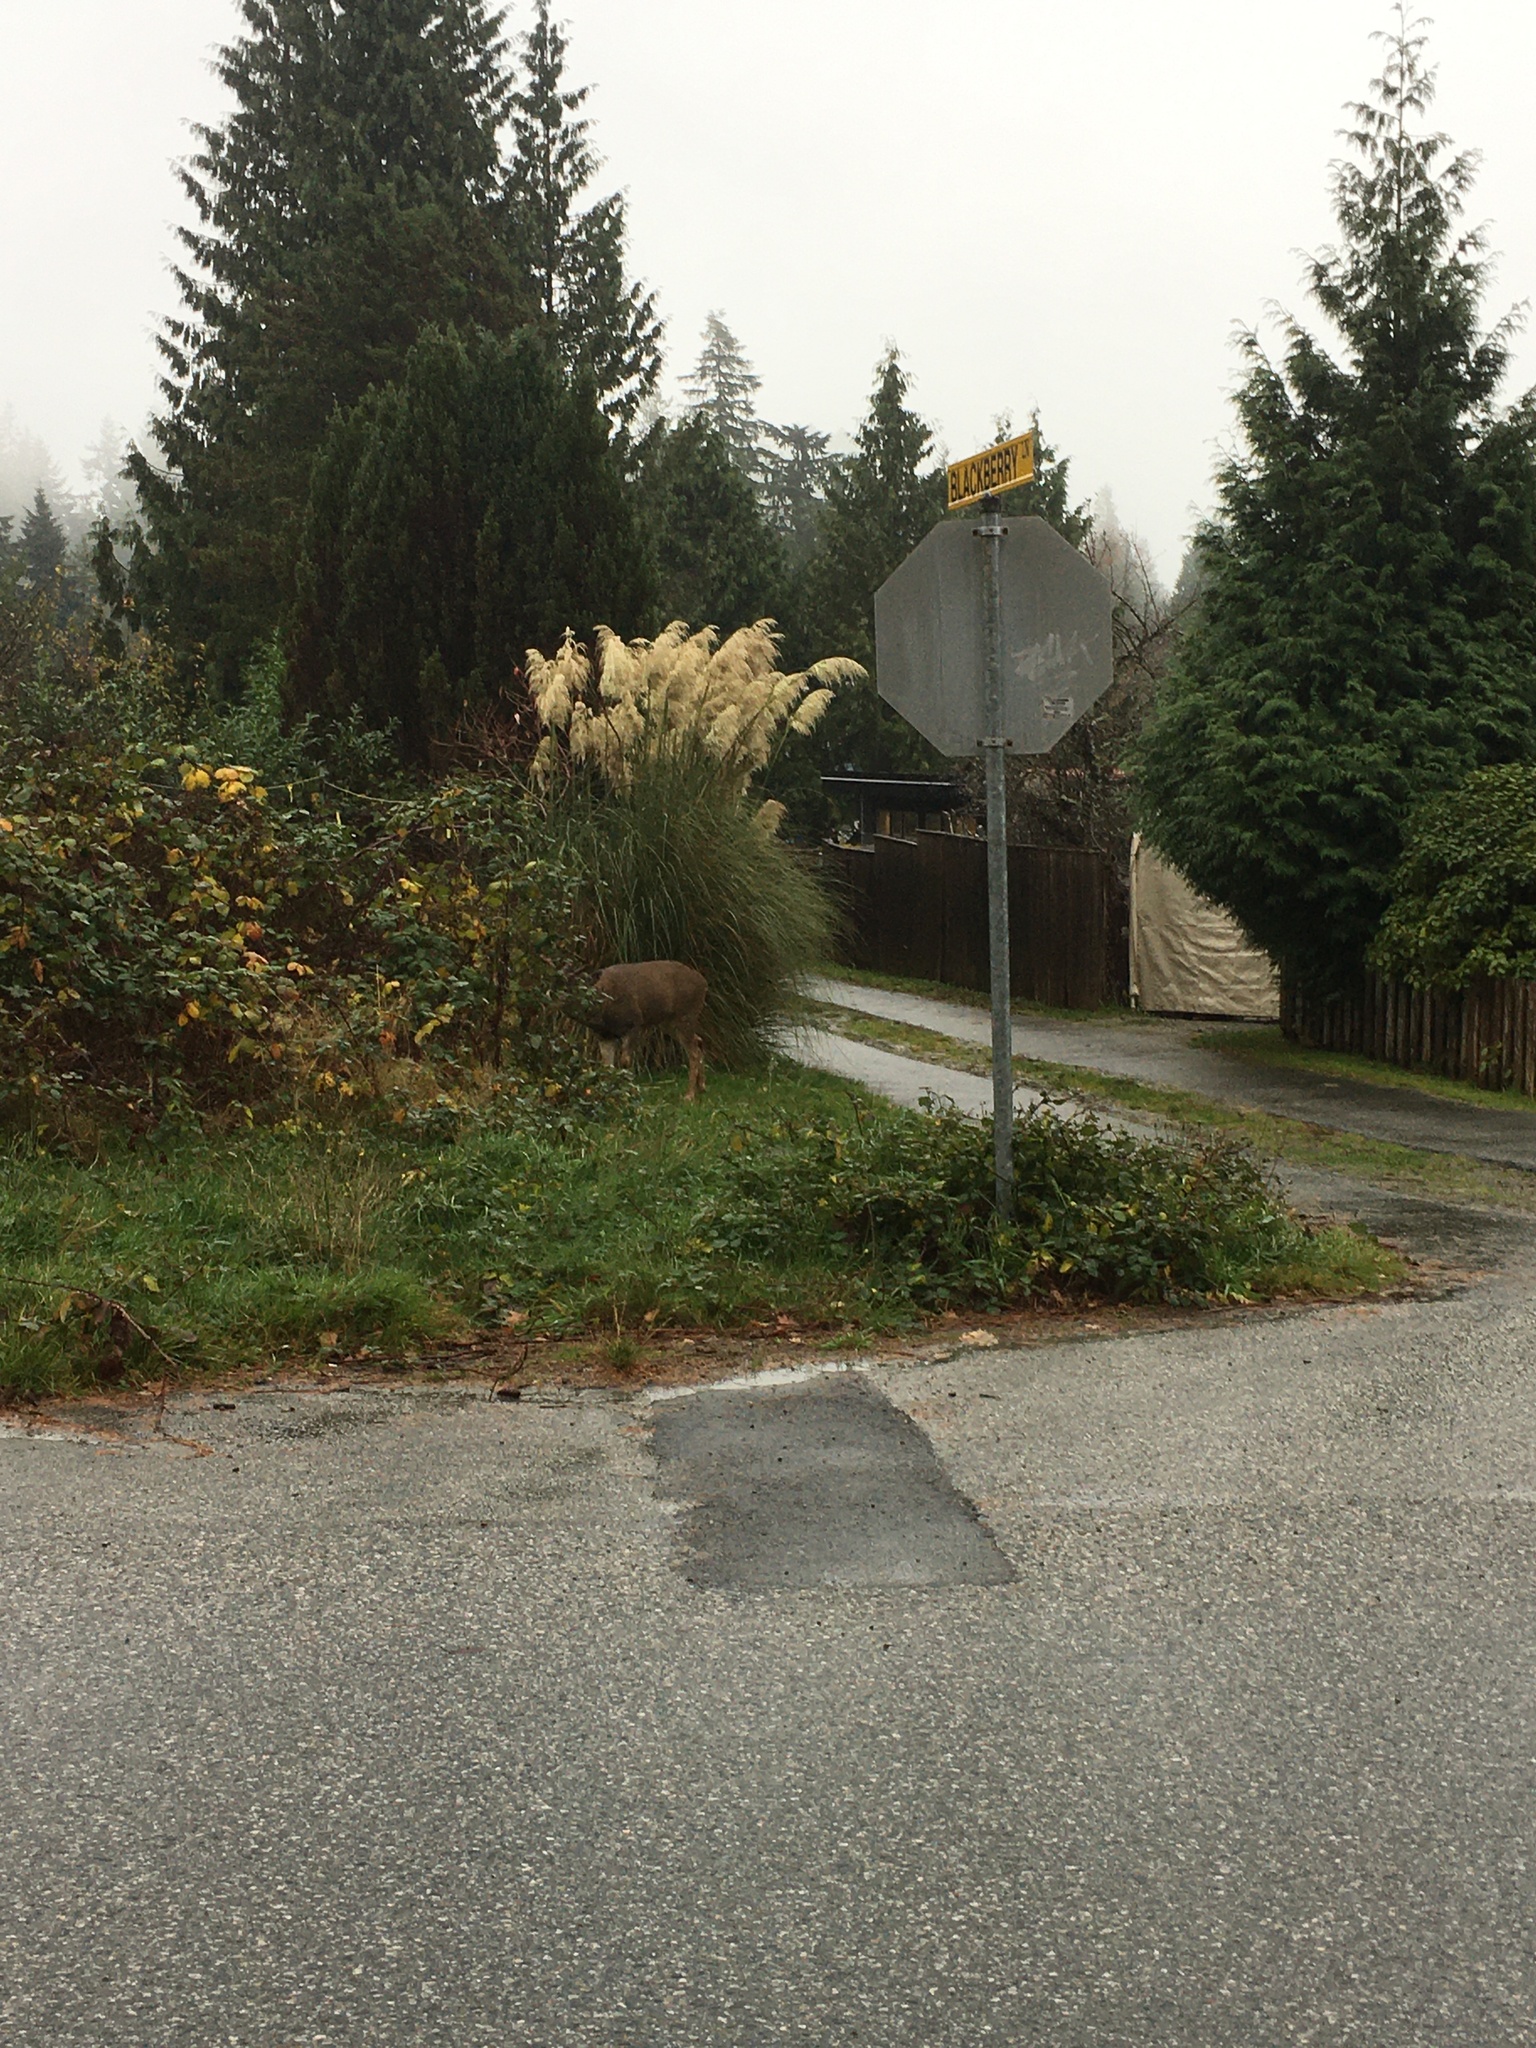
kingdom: Animalia
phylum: Chordata
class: Mammalia
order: Artiodactyla
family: Cervidae
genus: Odocoileus
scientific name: Odocoileus hemionus
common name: Mule deer
